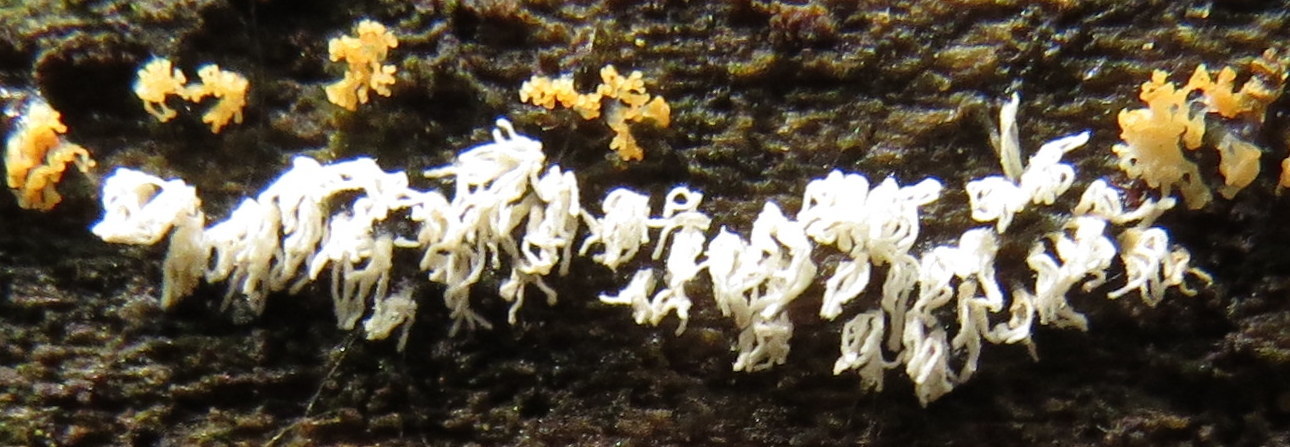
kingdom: Protozoa
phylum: Mycetozoa
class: Protosteliomycetes
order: Ceratiomyxales
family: Ceratiomyxaceae
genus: Ceratiomyxa
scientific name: Ceratiomyxa fruticulosa
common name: Honeycomb coral slime mold
